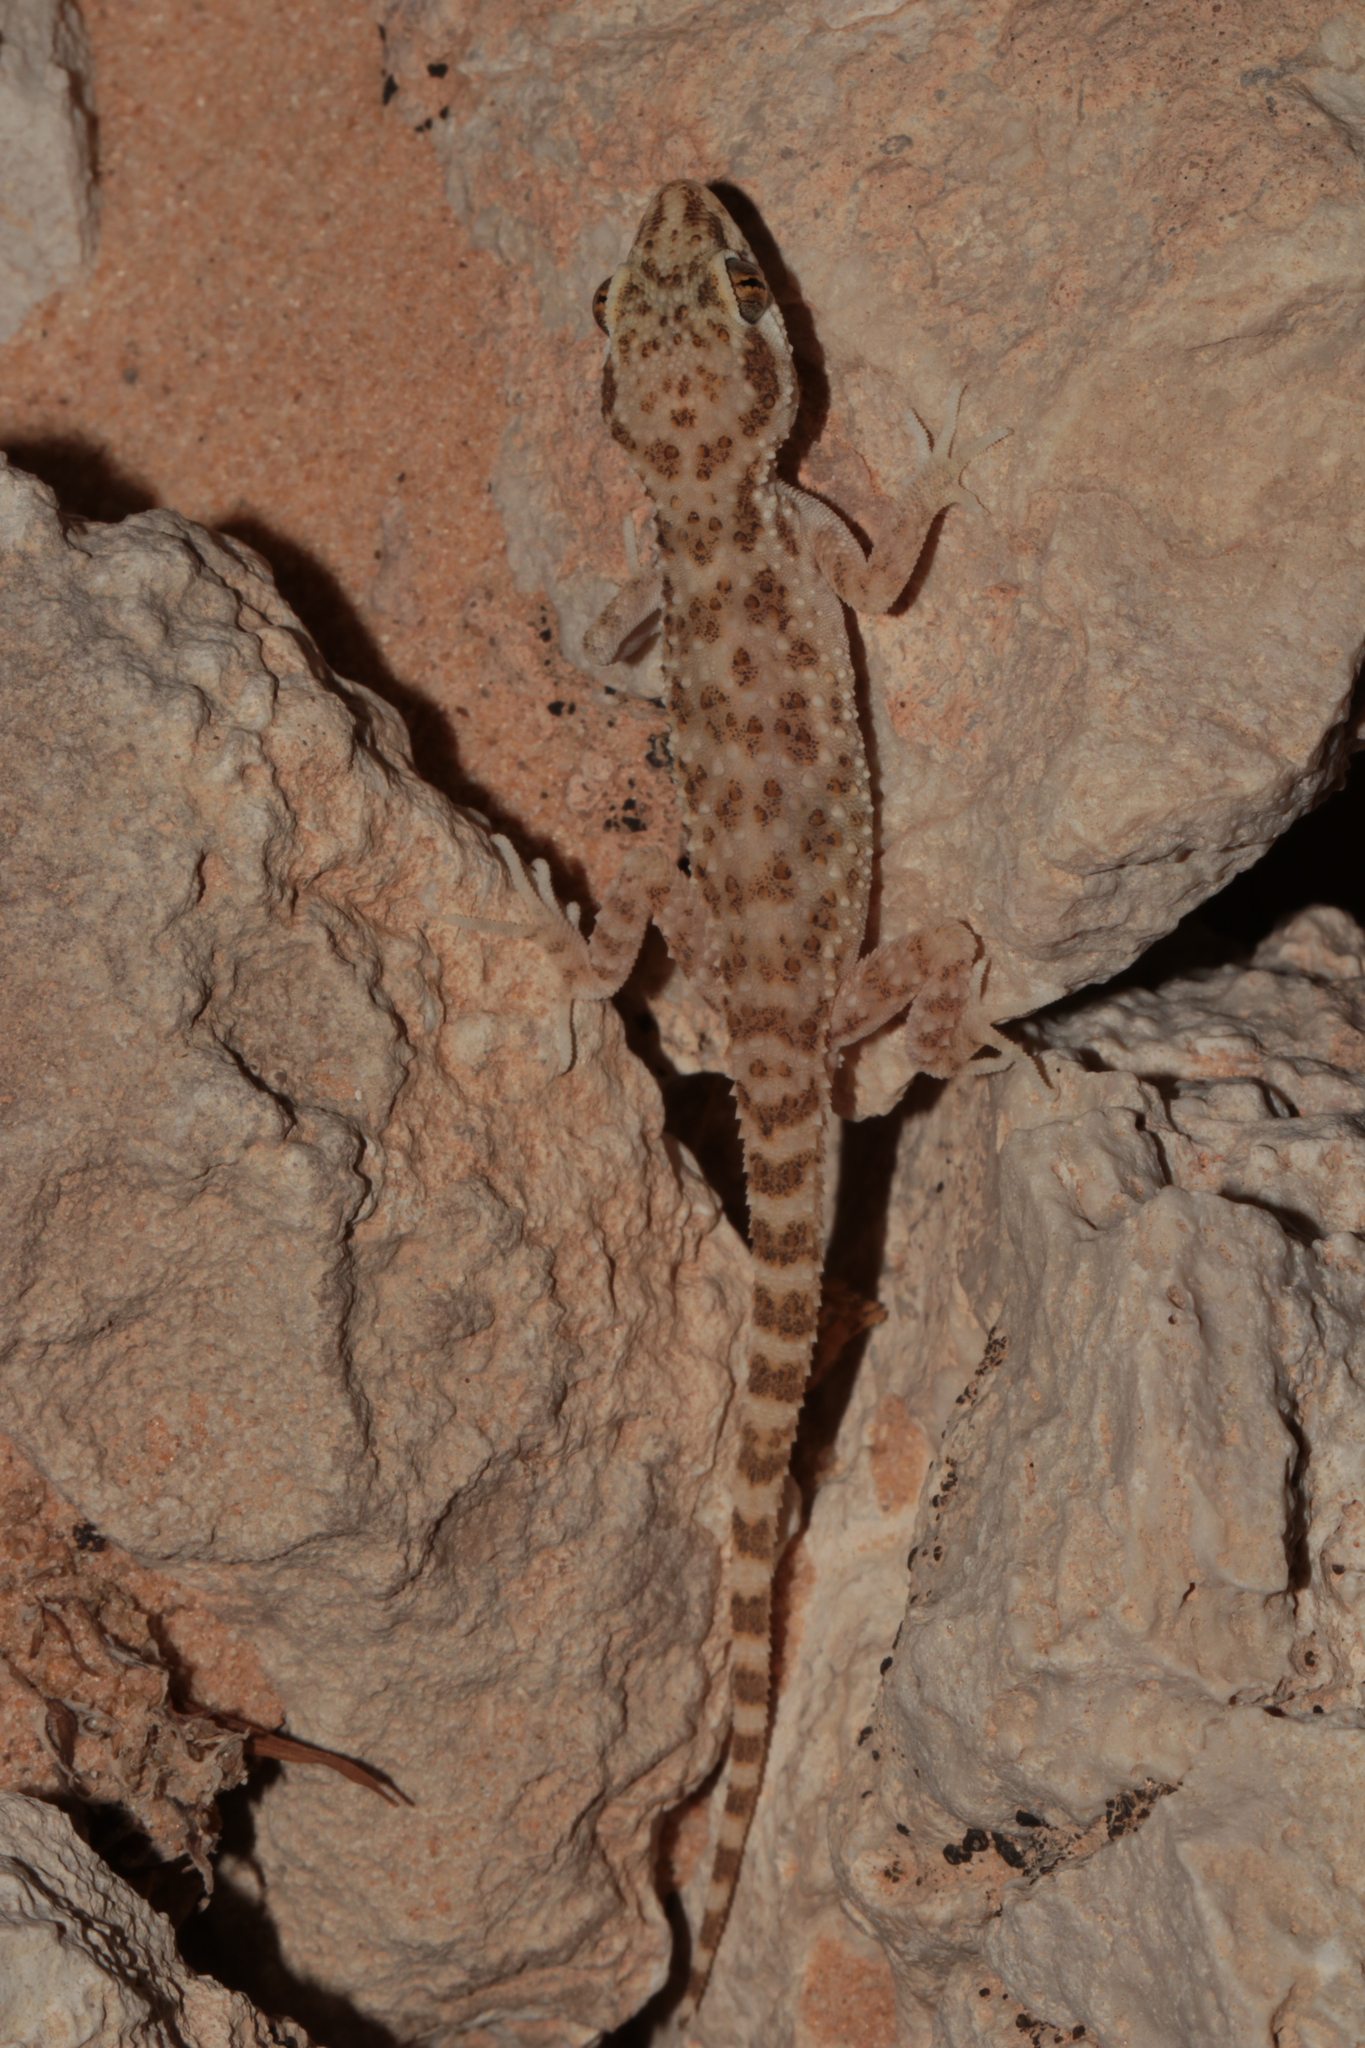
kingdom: Animalia
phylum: Chordata
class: Squamata
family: Gekkonidae
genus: Bunopus
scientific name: Bunopus tuberculatus
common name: Southern tuberculated gecko
